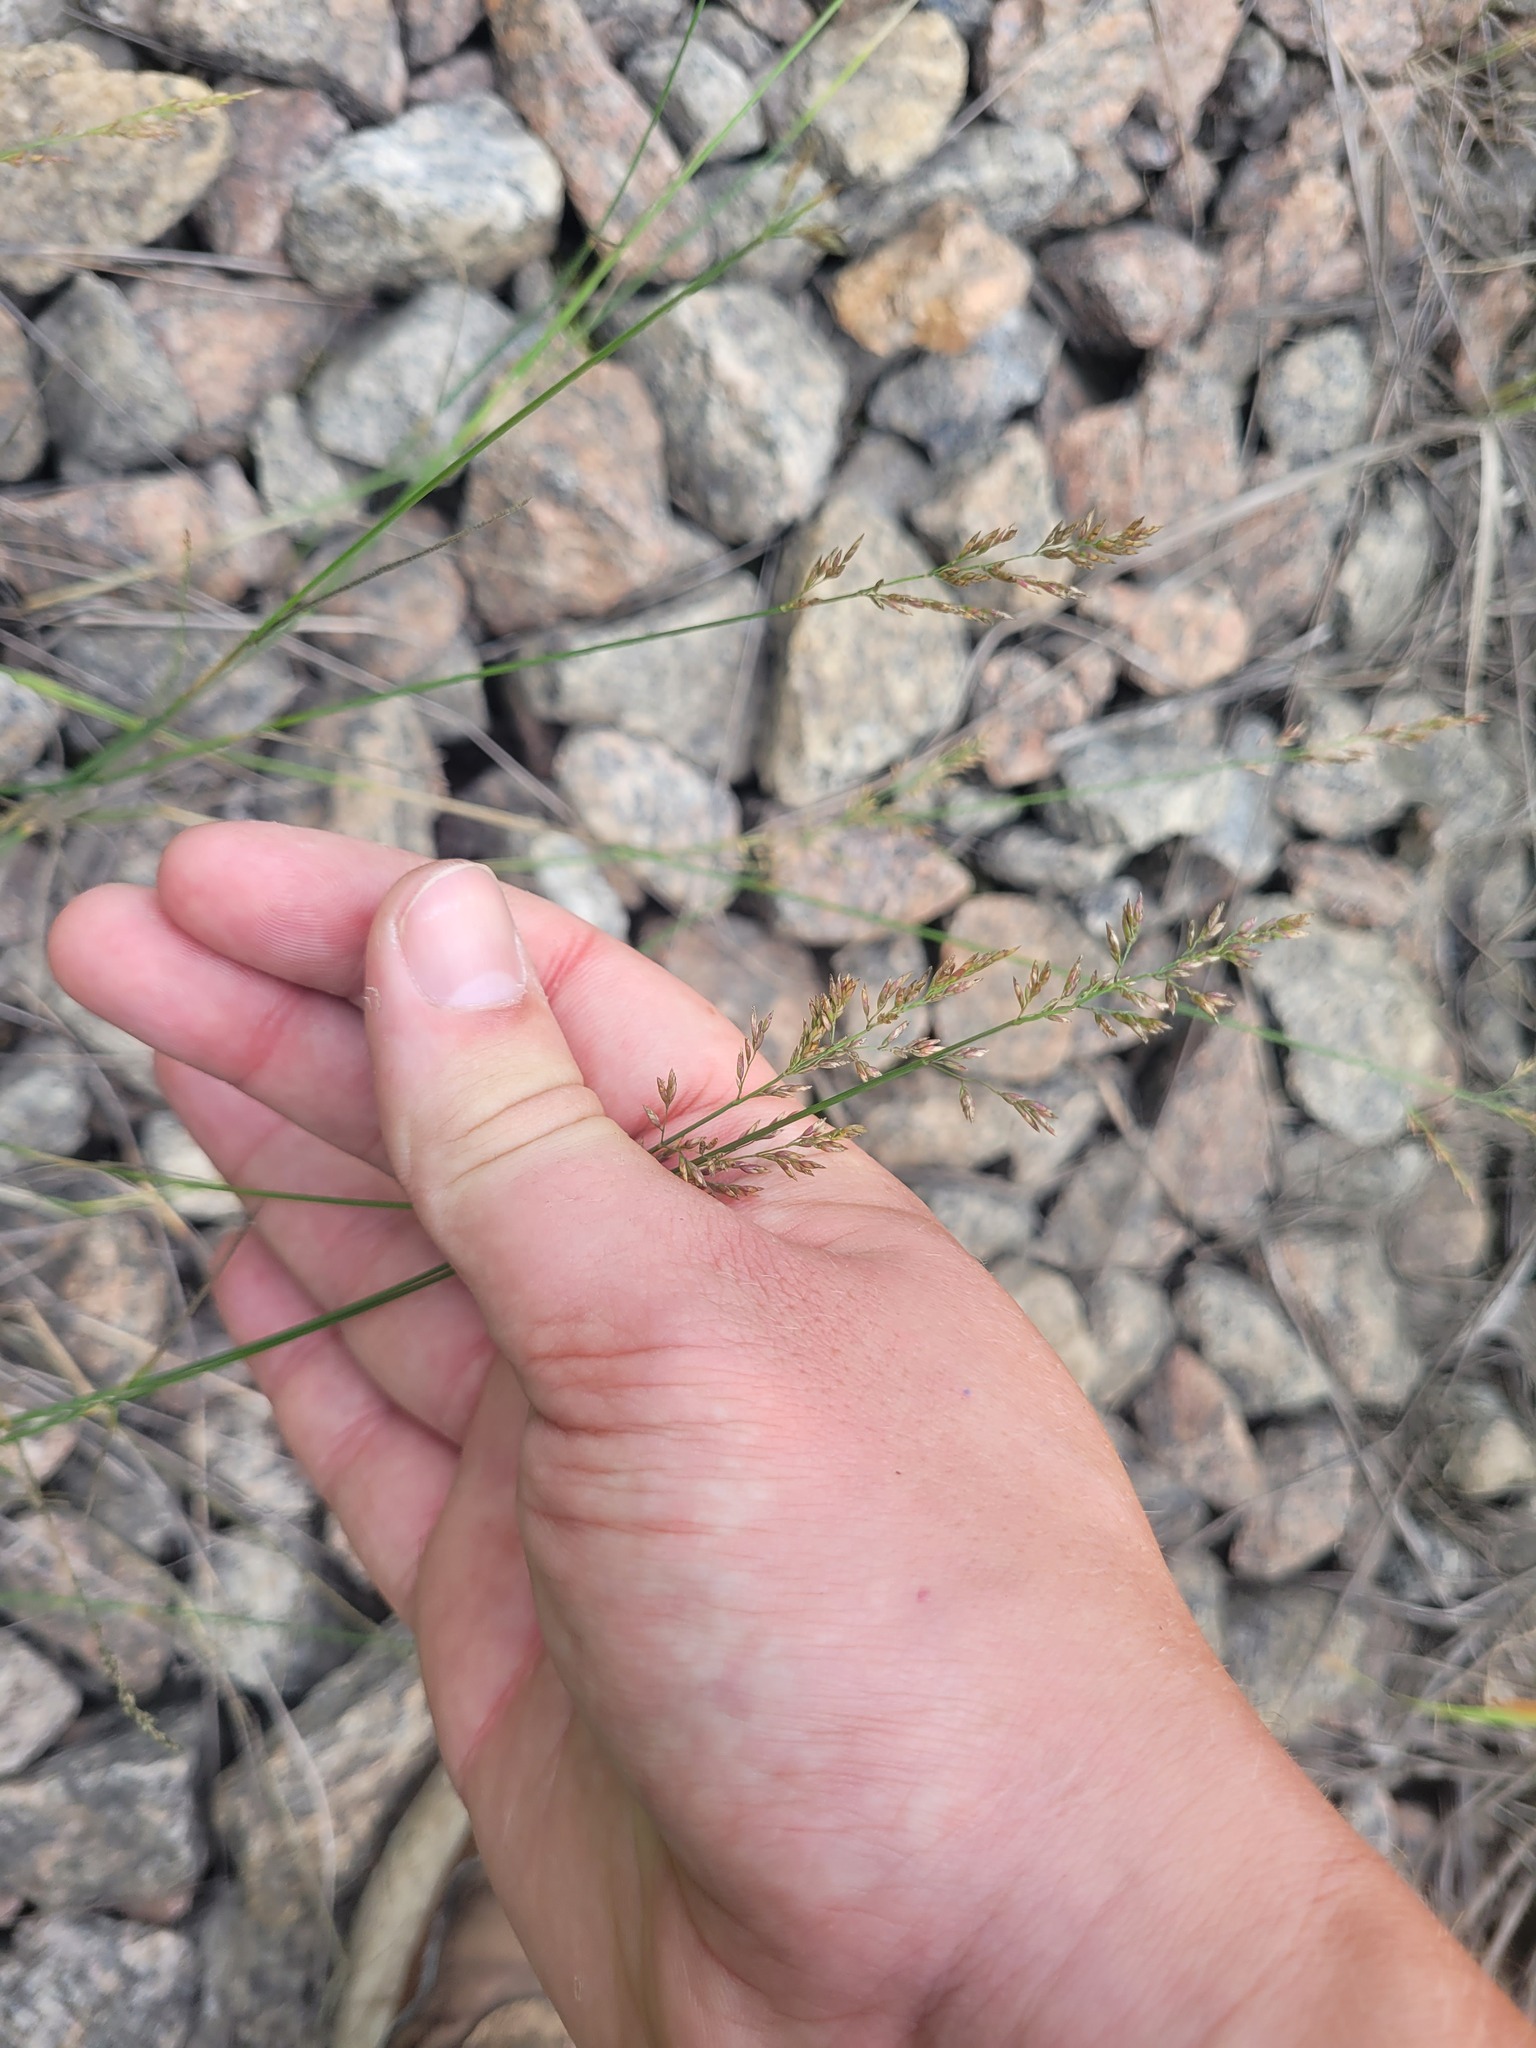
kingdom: Plantae
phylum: Tracheophyta
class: Liliopsida
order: Poales
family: Poaceae
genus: Poa
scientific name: Poa compressa
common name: Canada bluegrass
